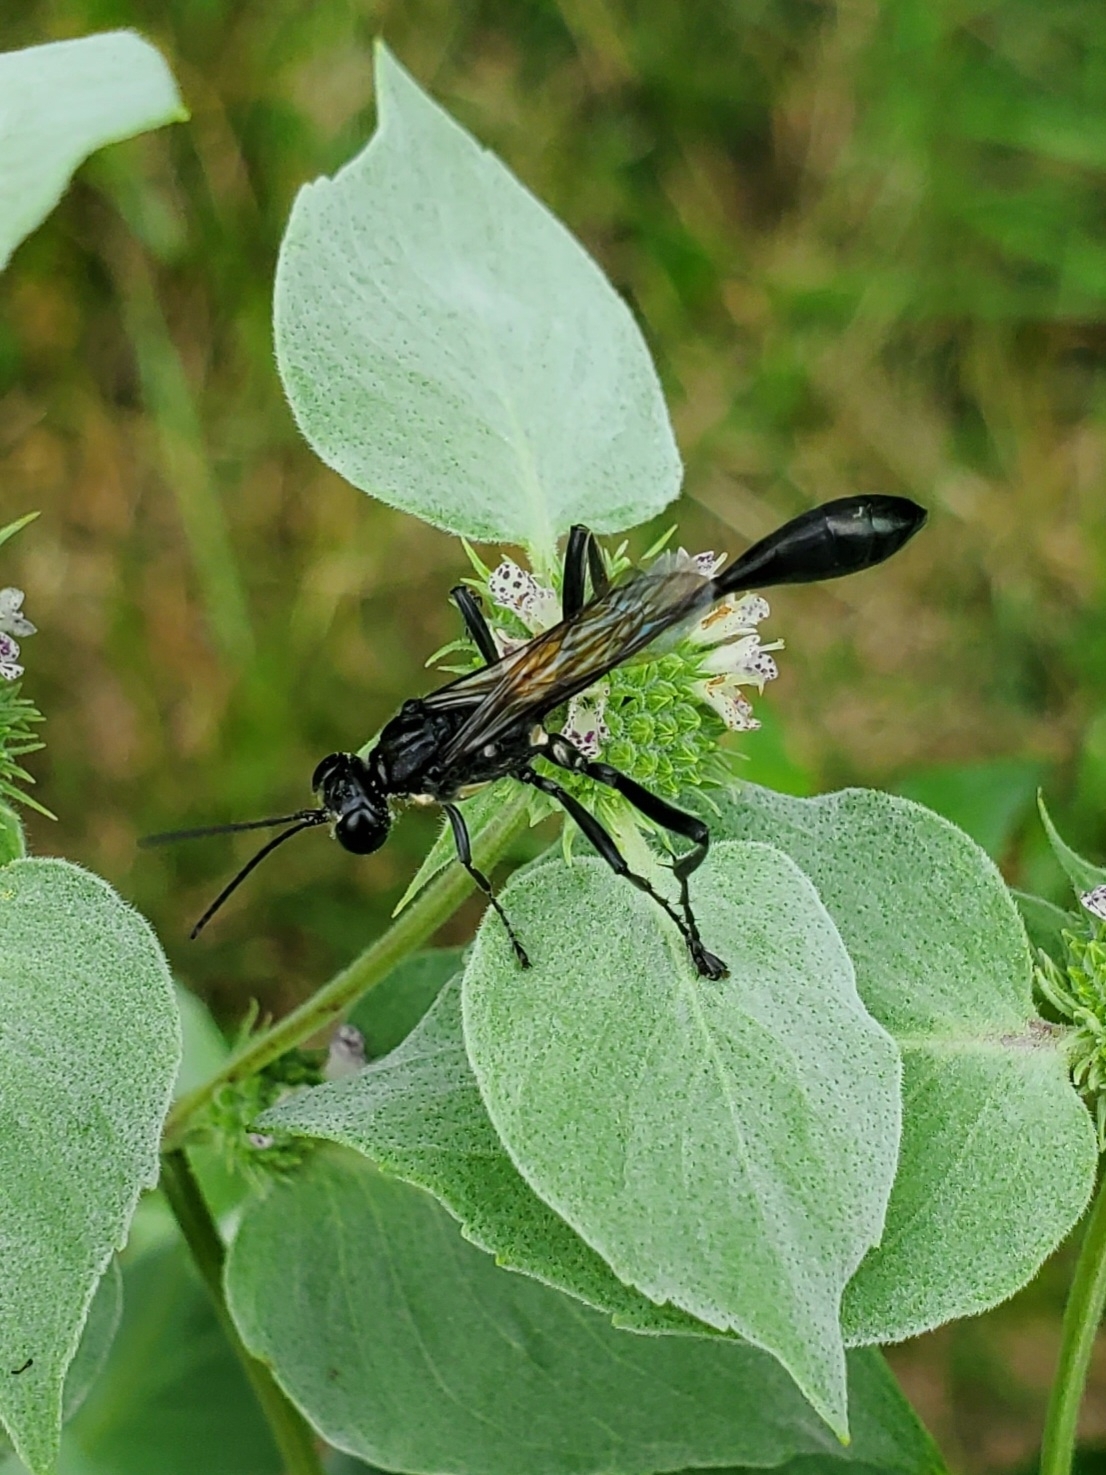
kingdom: Animalia
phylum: Arthropoda
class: Insecta
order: Hymenoptera
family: Sphecidae
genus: Eremnophila
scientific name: Eremnophila aureonotata
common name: Gold-marked thread-waisted wasp
